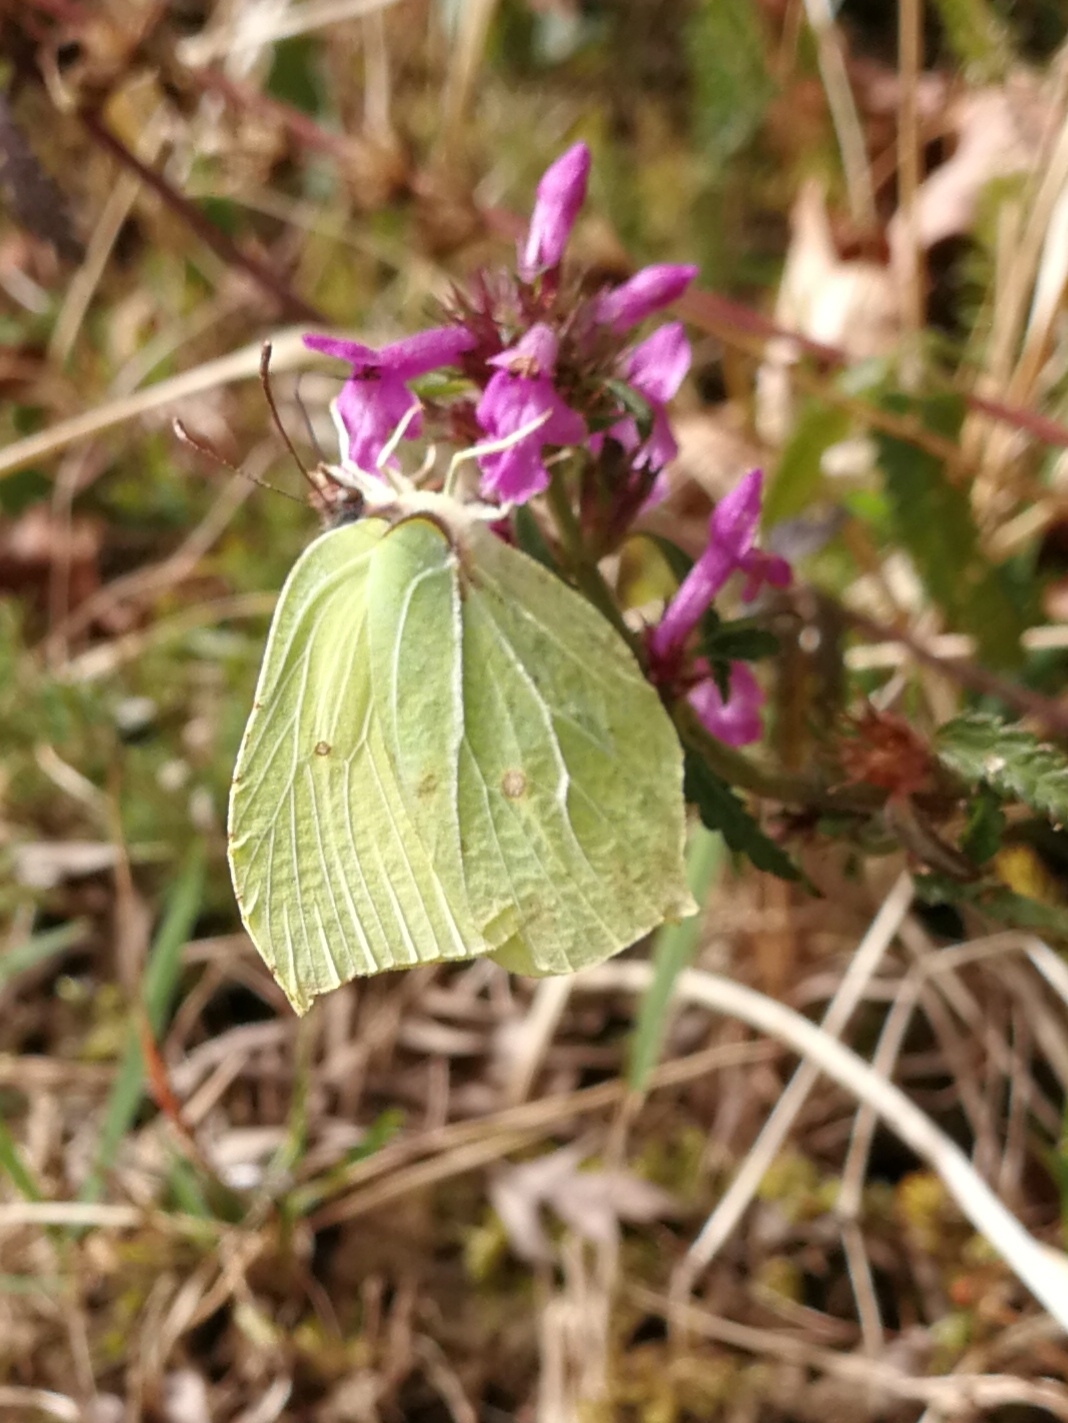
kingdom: Animalia
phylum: Arthropoda
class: Insecta
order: Lepidoptera
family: Pieridae
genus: Gonepteryx
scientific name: Gonepteryx rhamni
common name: Brimstone
